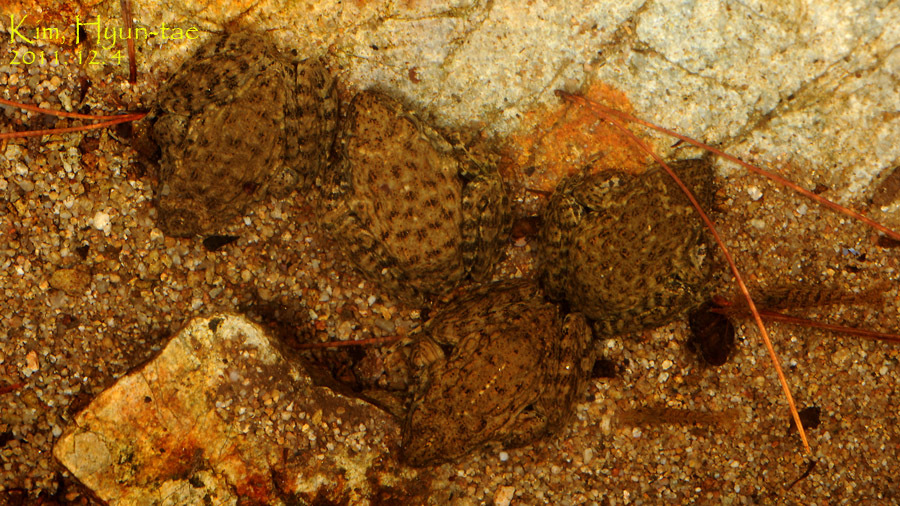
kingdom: Animalia
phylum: Chordata
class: Amphibia
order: Anura
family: Ranidae
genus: Glandirana
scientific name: Glandirana emeljanovi
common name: Northeast china rough-skinned frog
